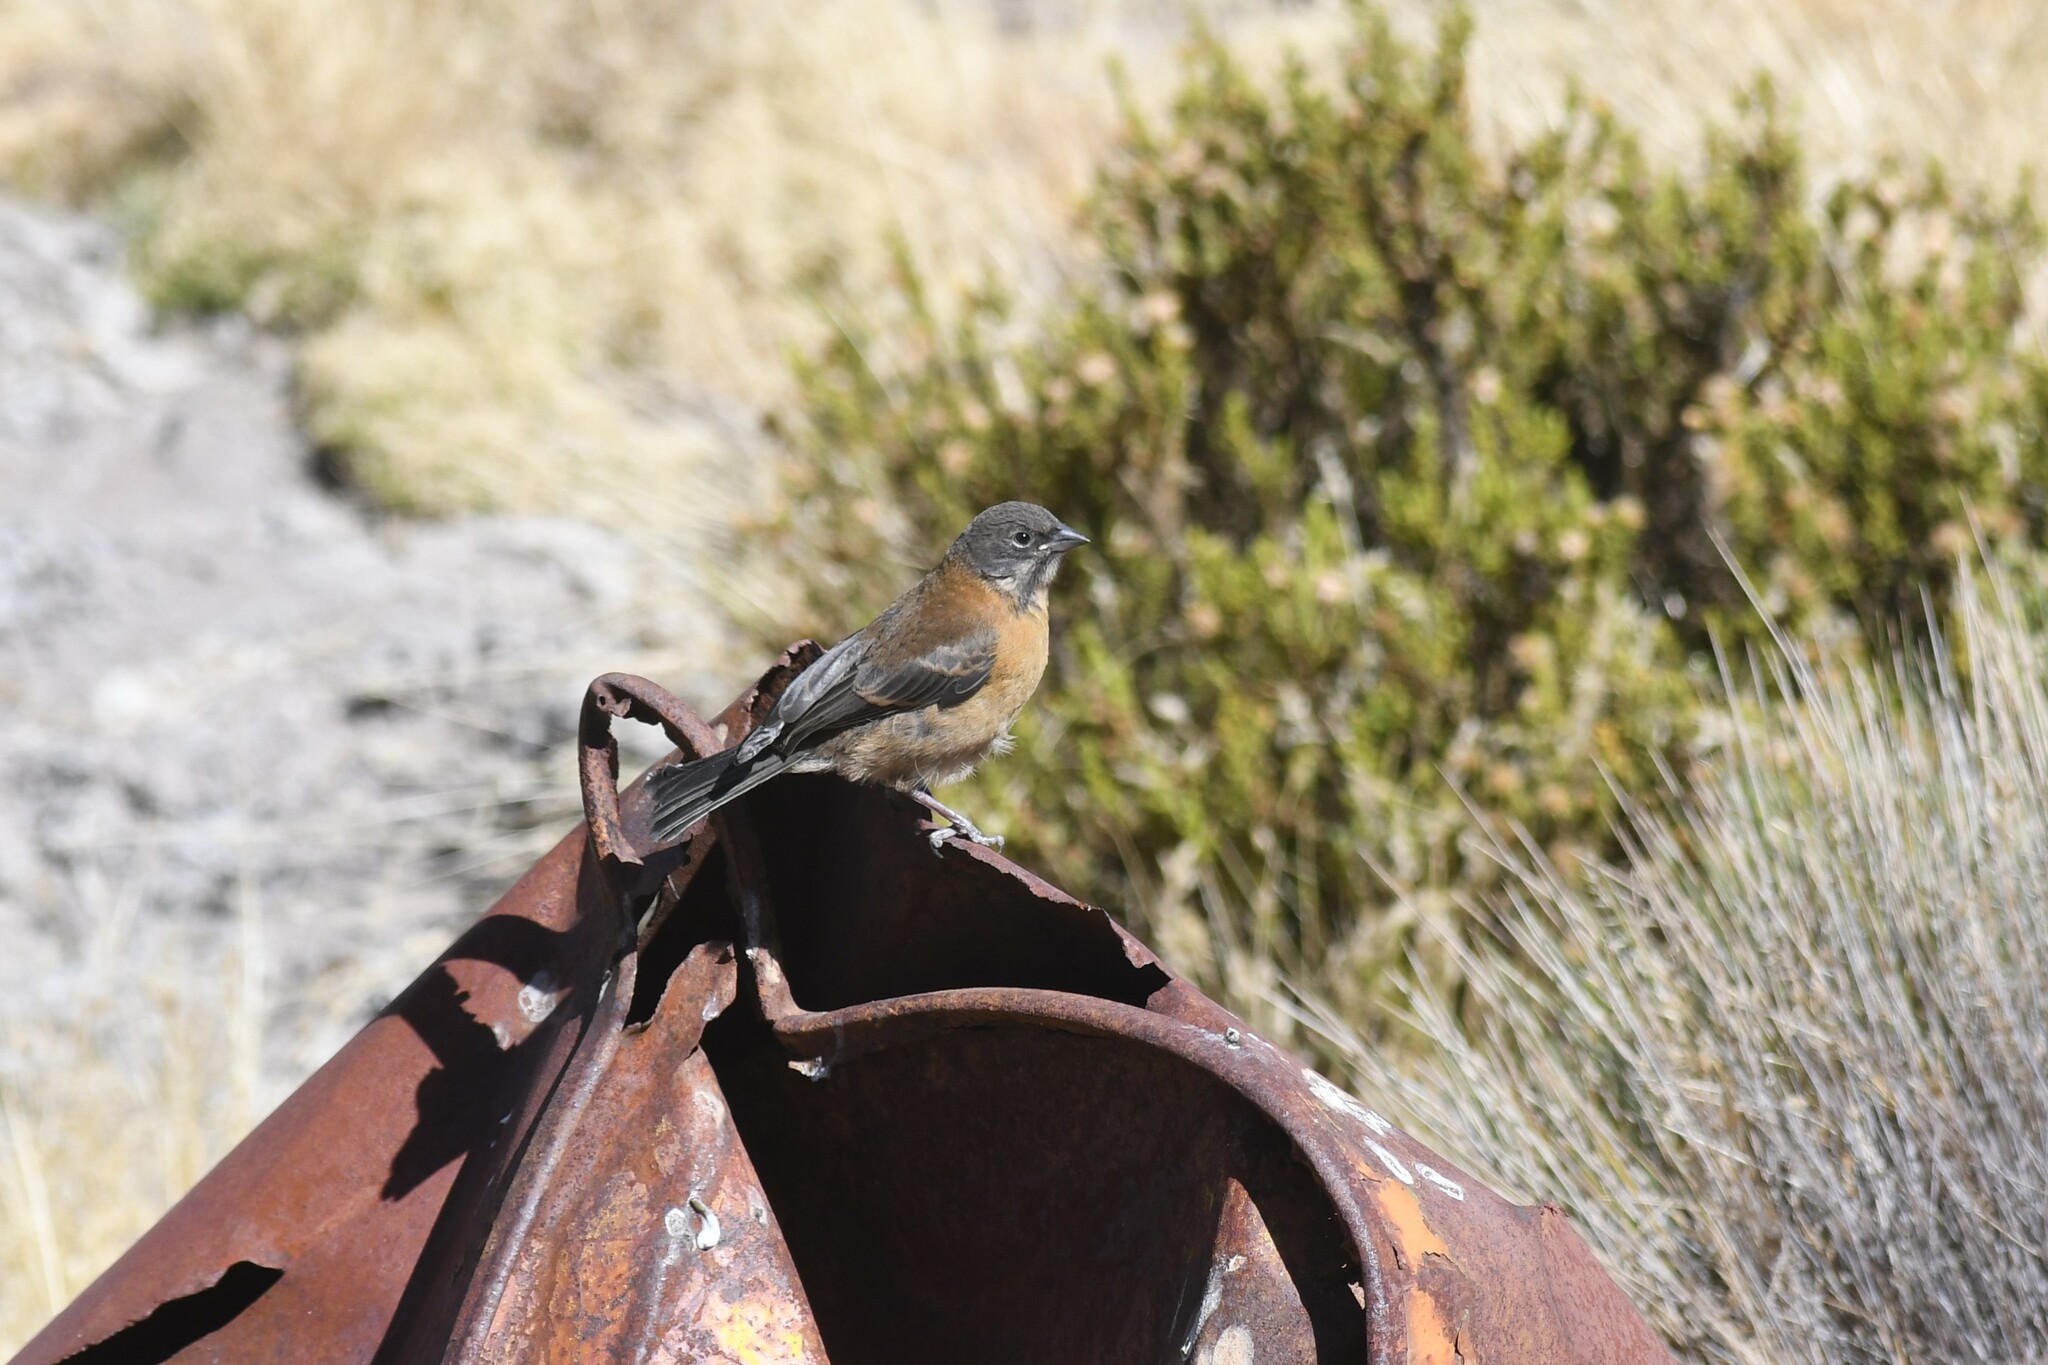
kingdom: Animalia
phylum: Chordata
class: Aves
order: Passeriformes
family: Thraupidae
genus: Phrygilus
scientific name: Phrygilus atriceps
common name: Black-hooded sierra finch
